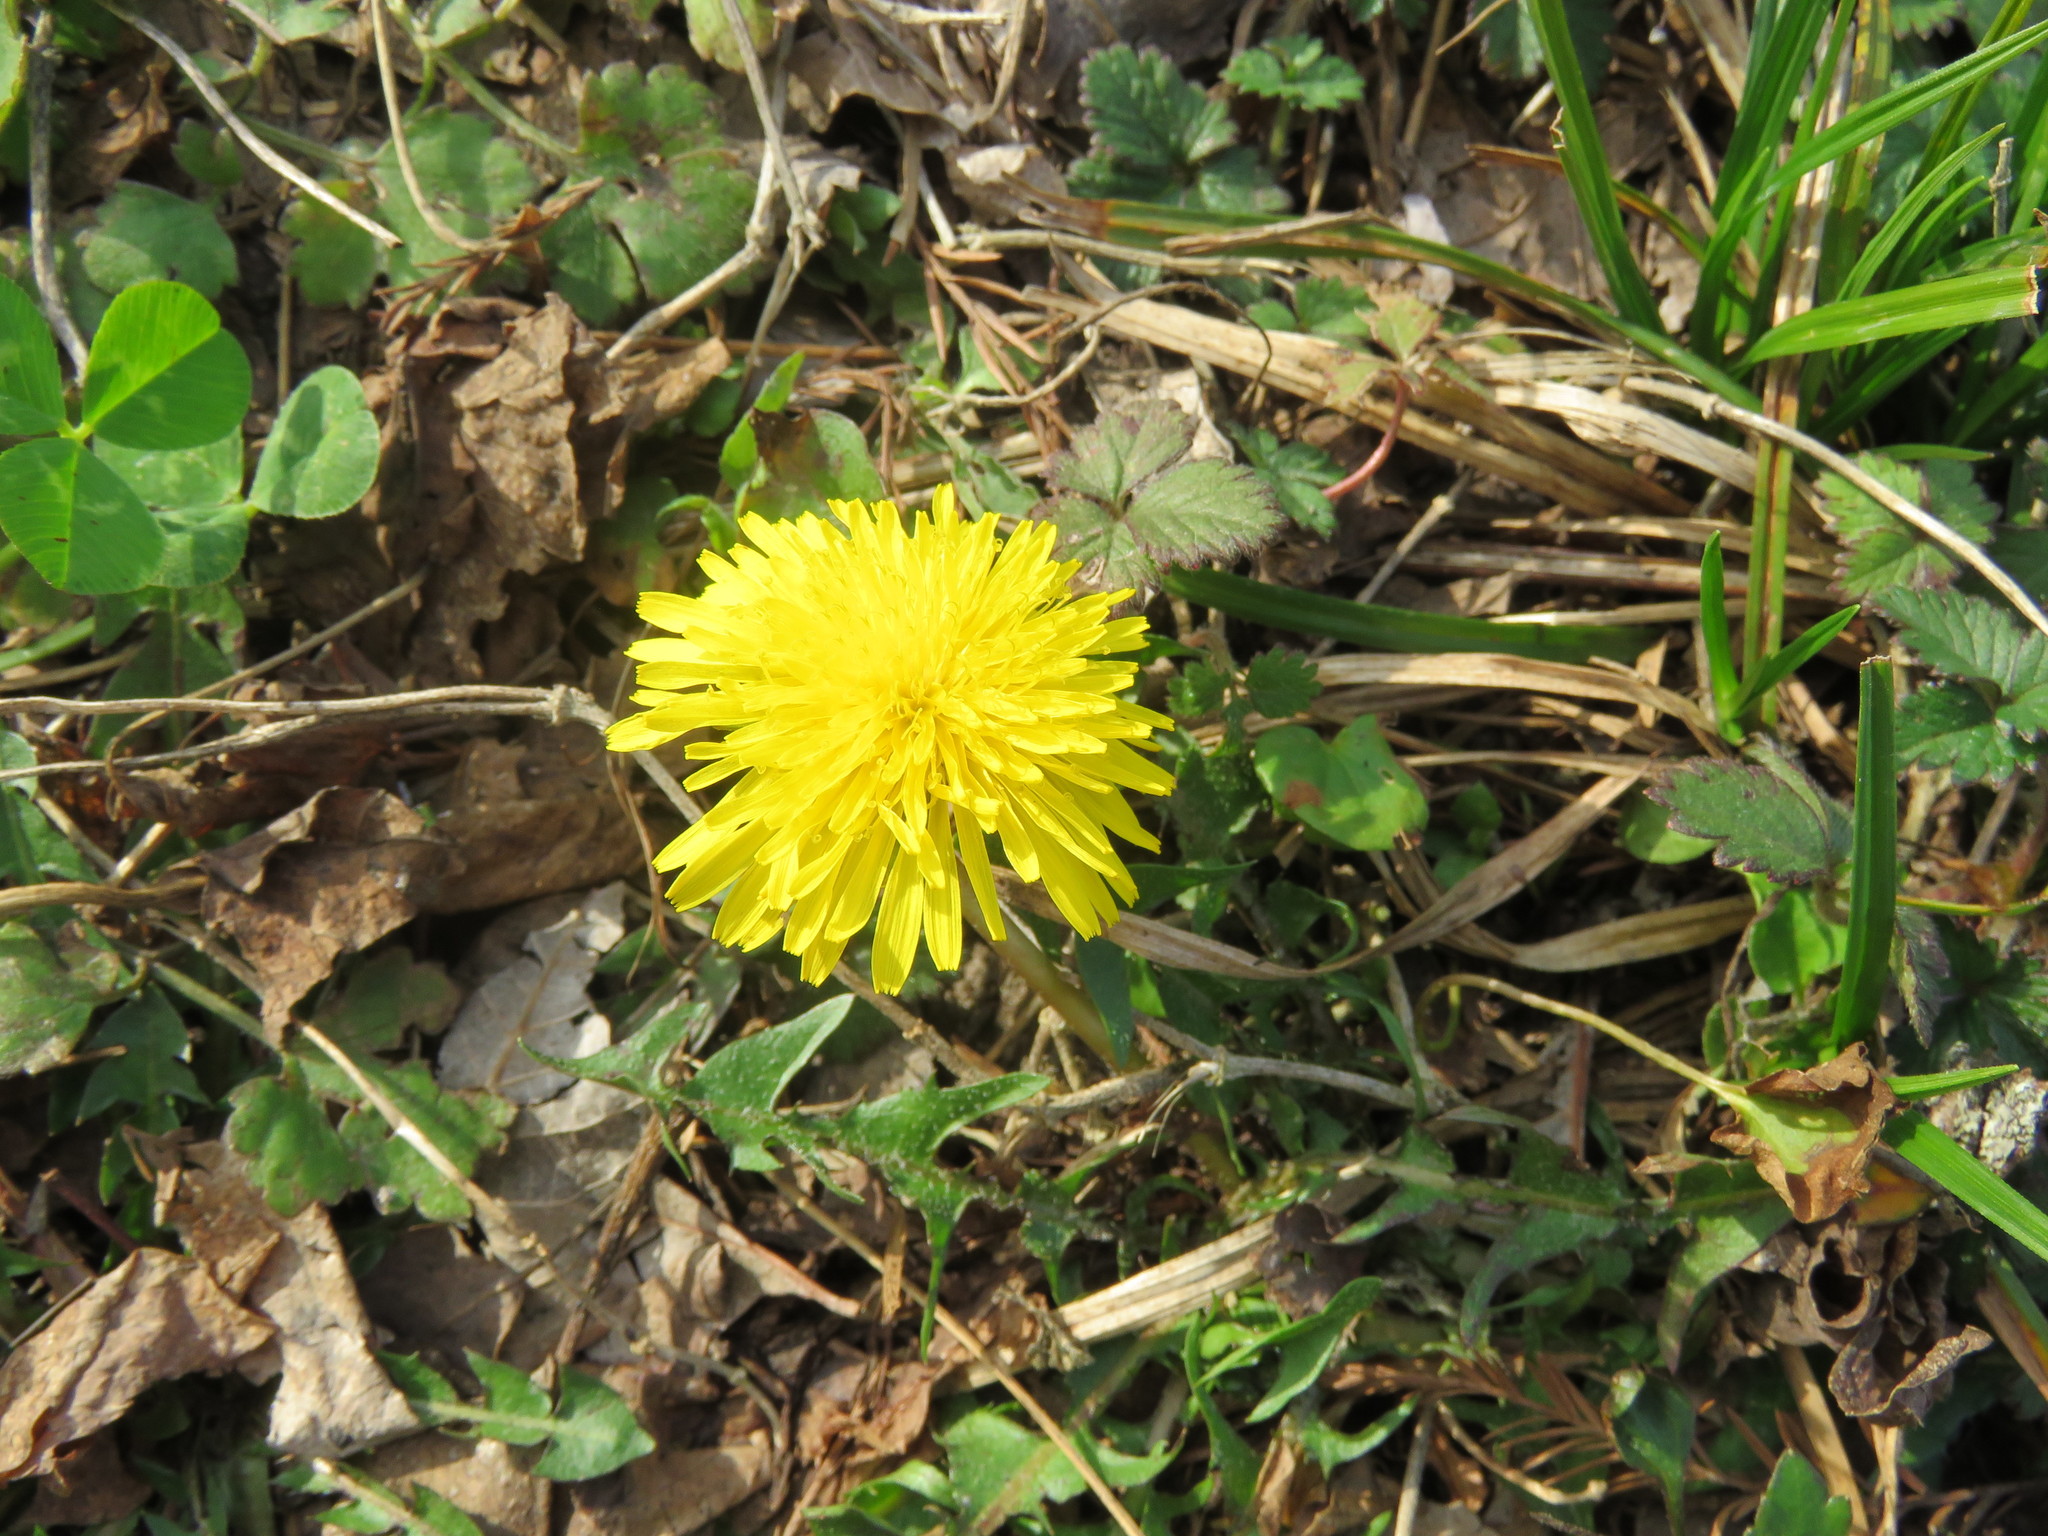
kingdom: Plantae
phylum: Tracheophyta
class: Magnoliopsida
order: Asterales
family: Asteraceae
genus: Taraxacum
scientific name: Taraxacum officinale
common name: Common dandelion
